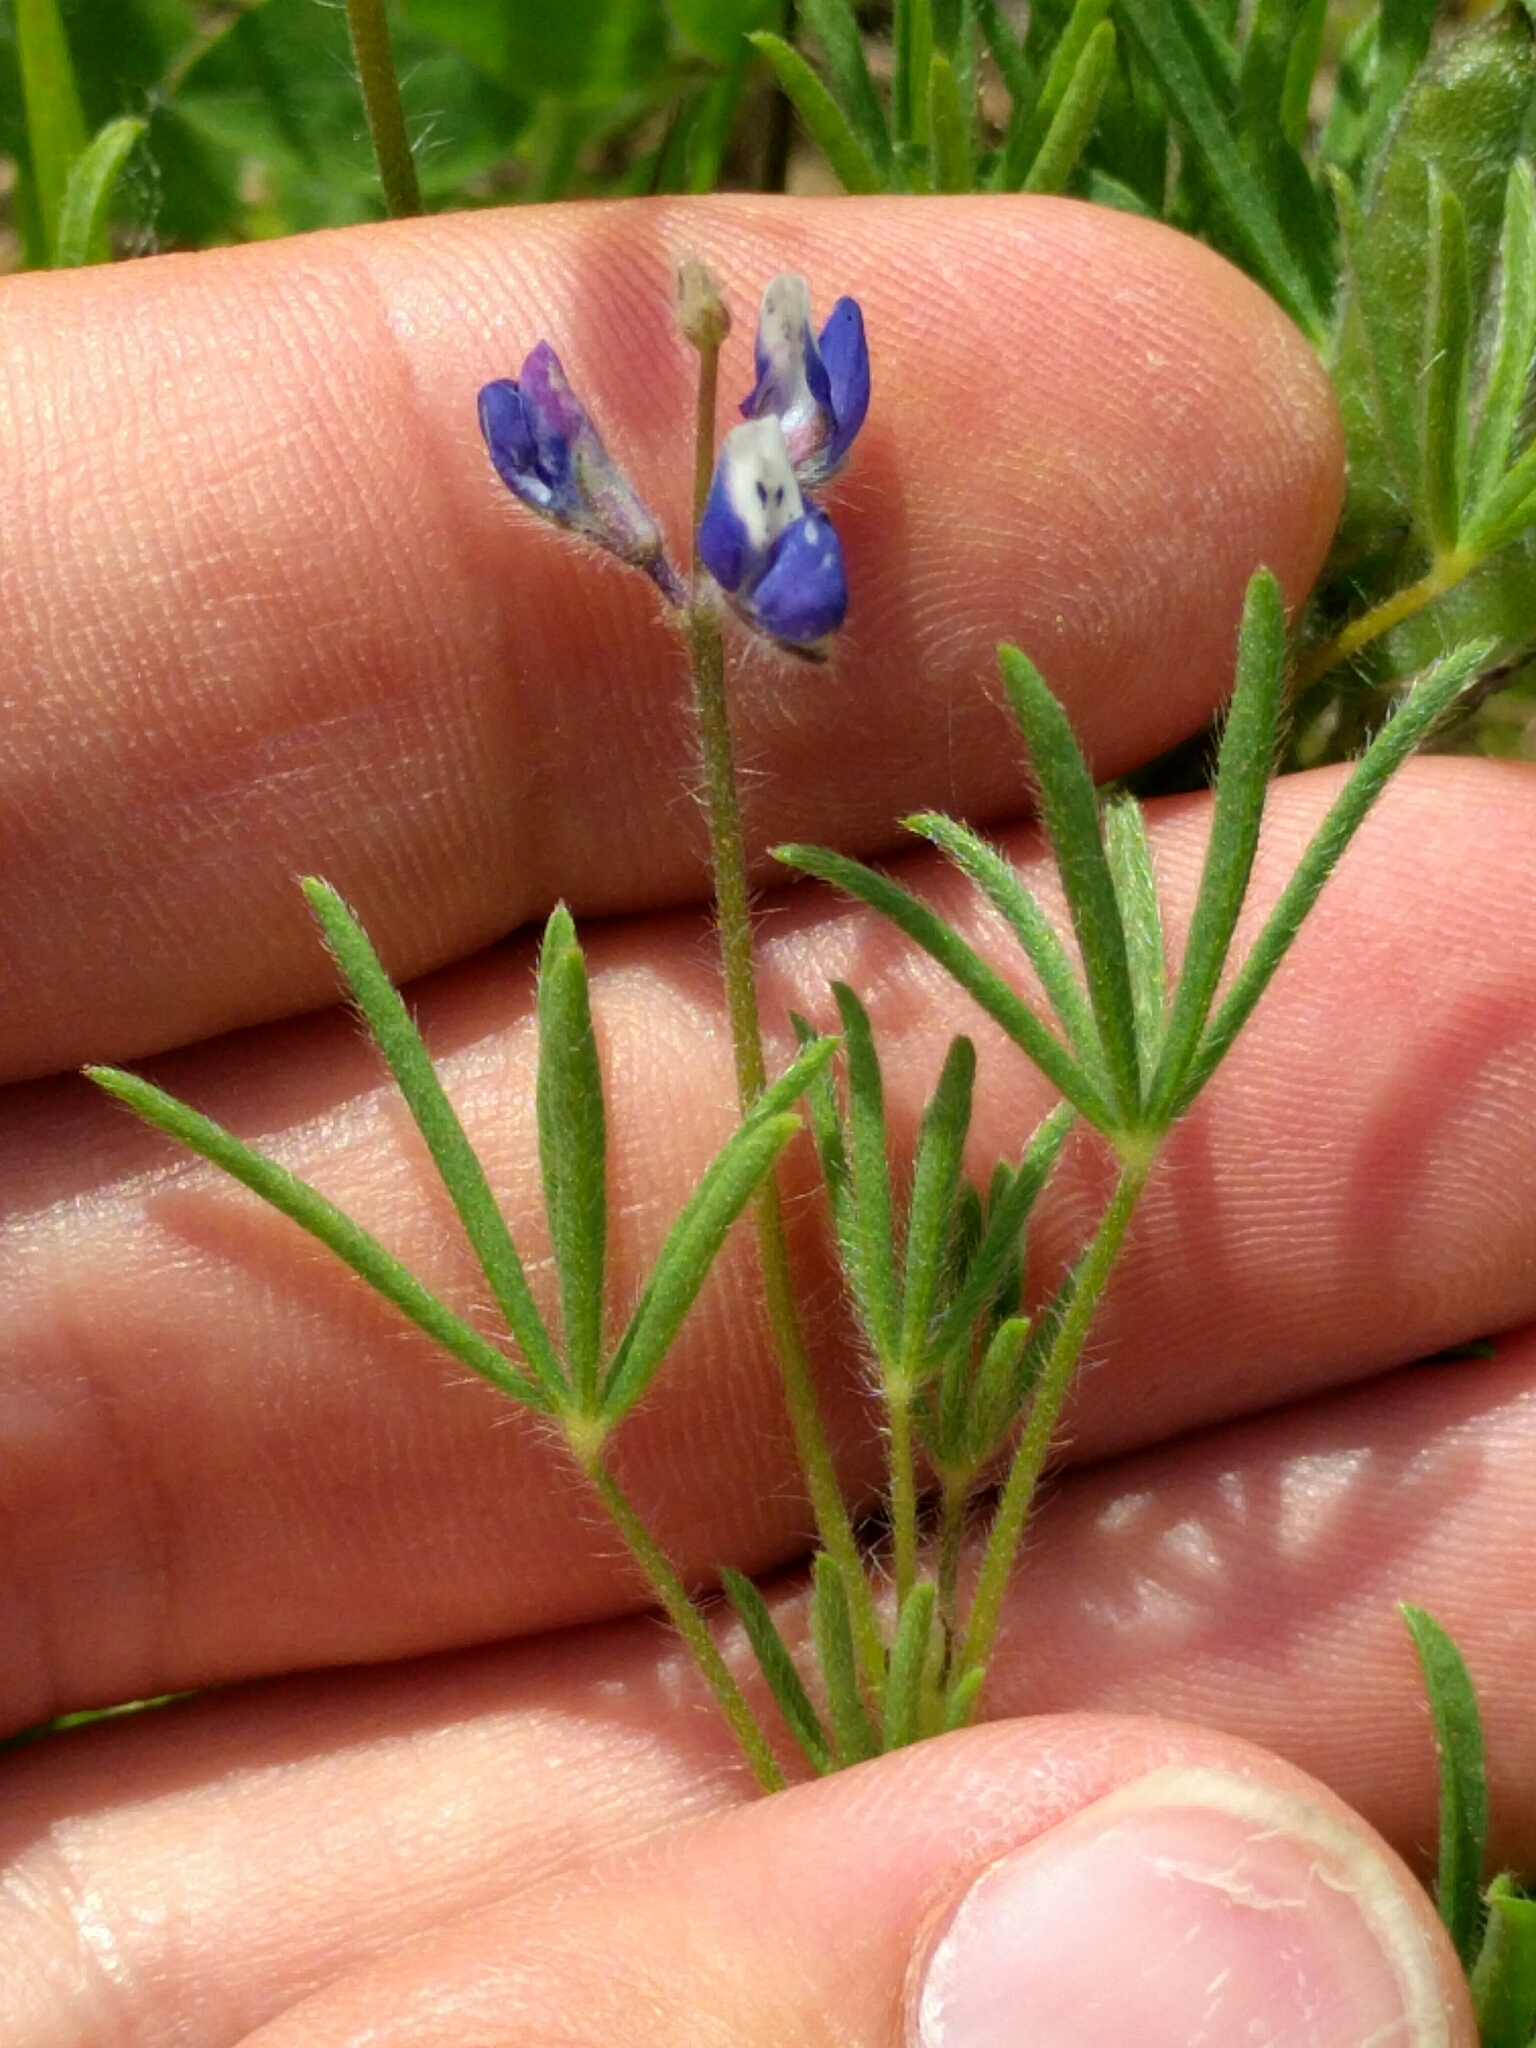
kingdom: Plantae
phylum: Tracheophyta
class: Magnoliopsida
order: Fabales
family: Fabaceae
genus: Lupinus
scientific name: Lupinus bicolor
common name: Miniature lupine
